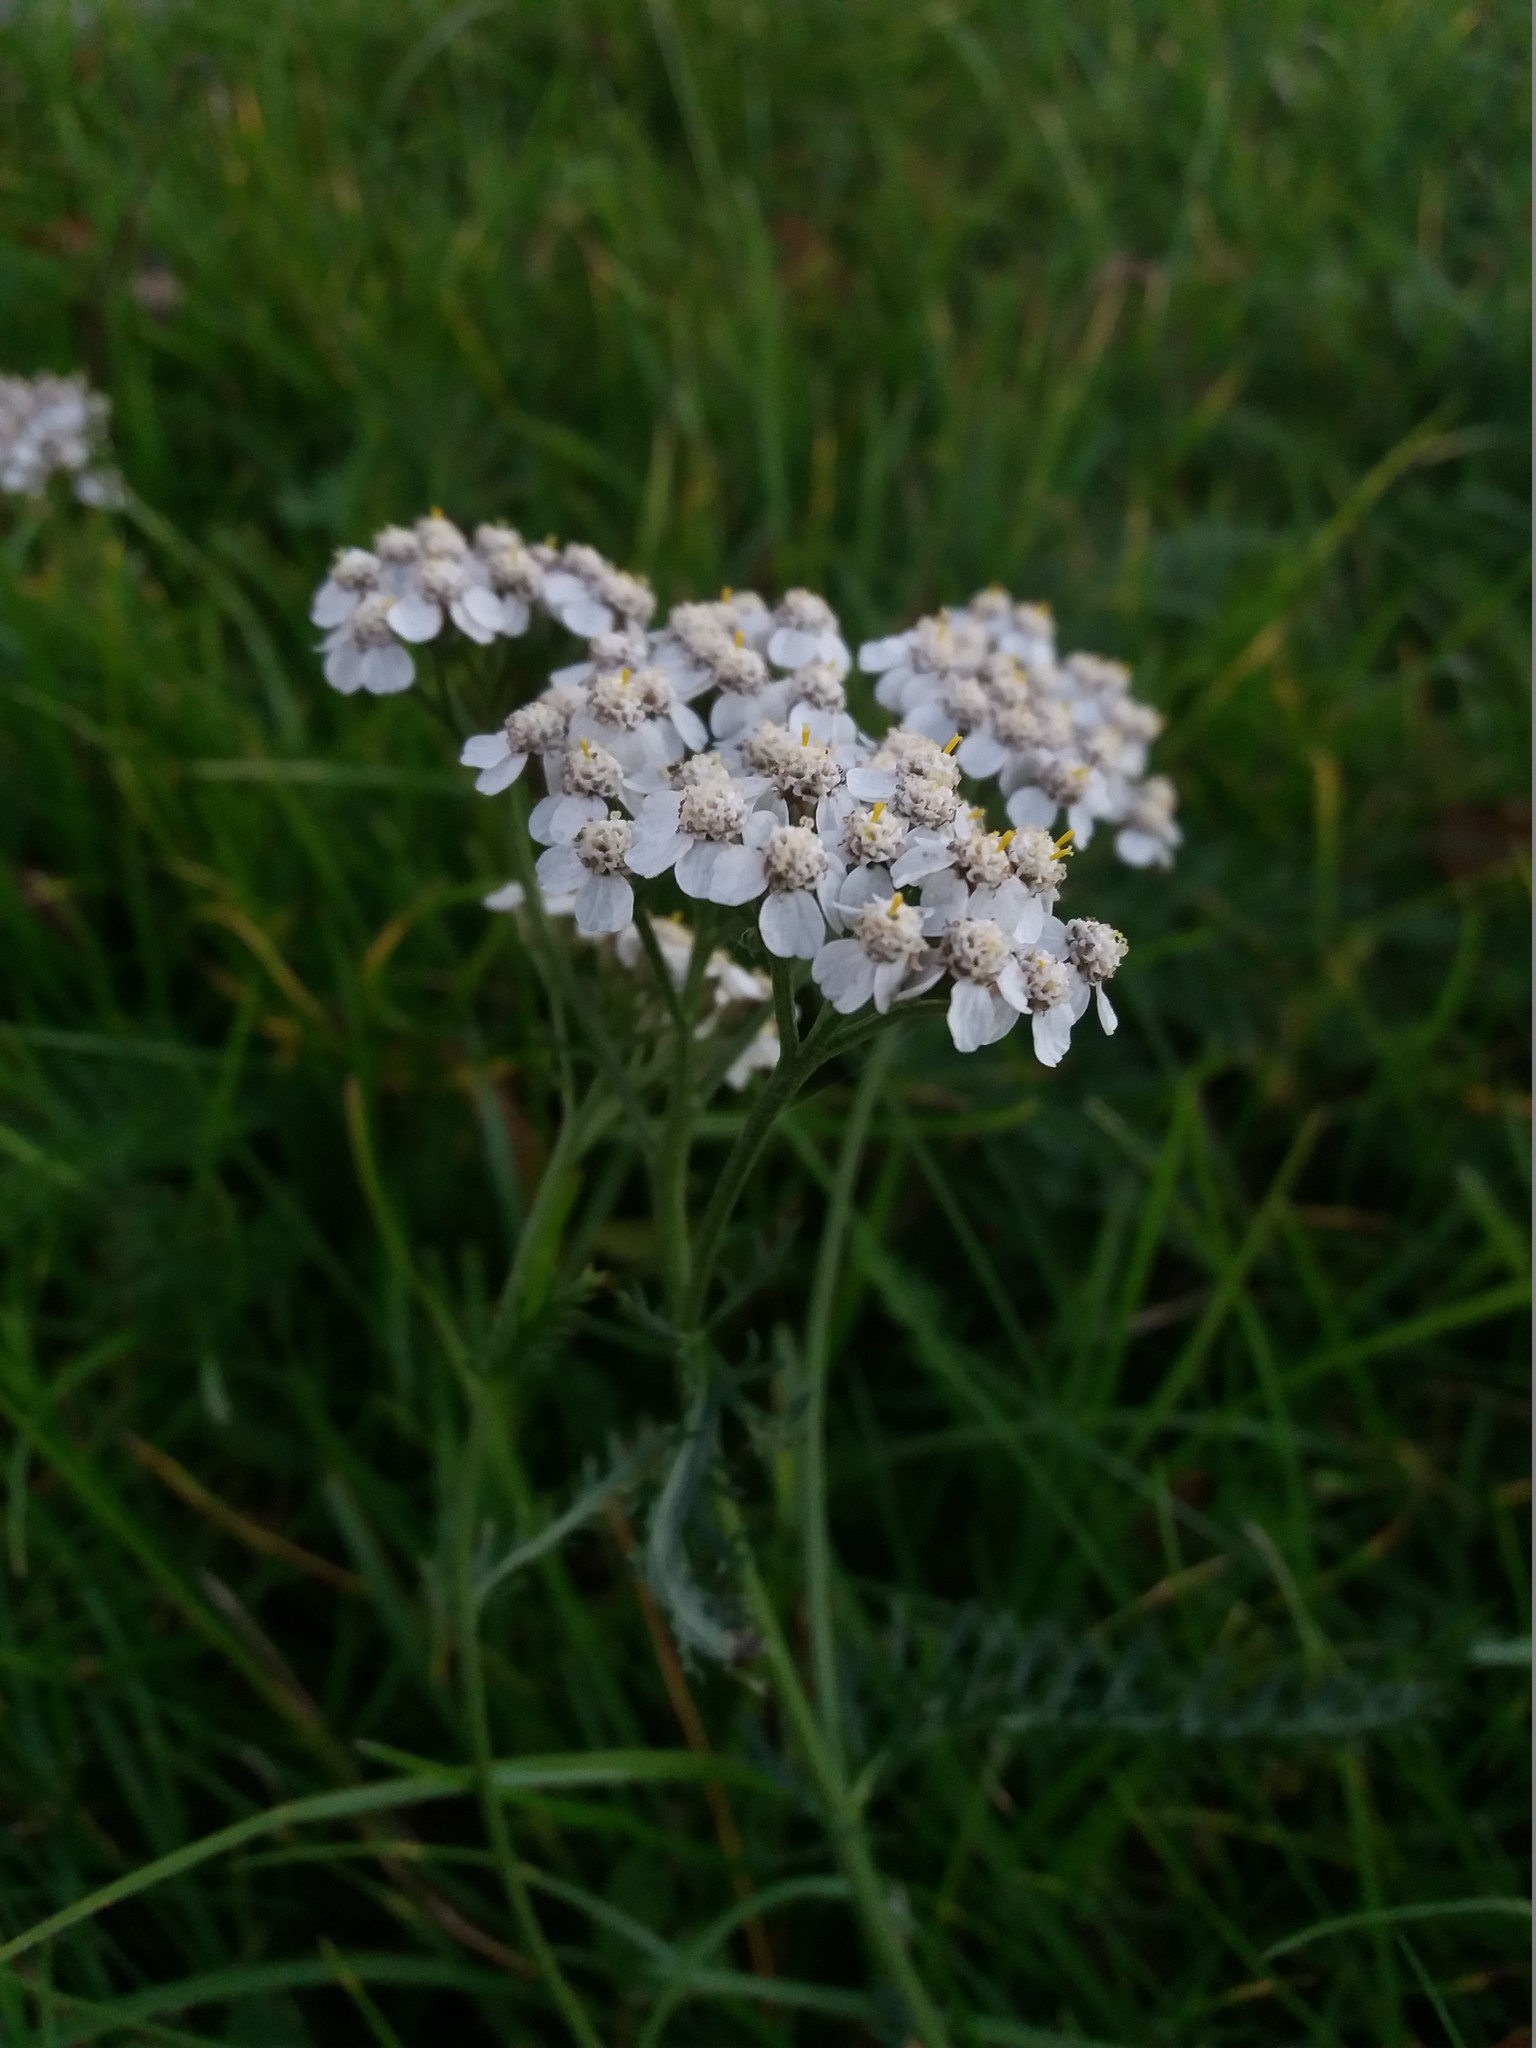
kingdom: Plantae
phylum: Tracheophyta
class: Magnoliopsida
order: Asterales
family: Asteraceae
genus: Achillea
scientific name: Achillea millefolium
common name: Yarrow
